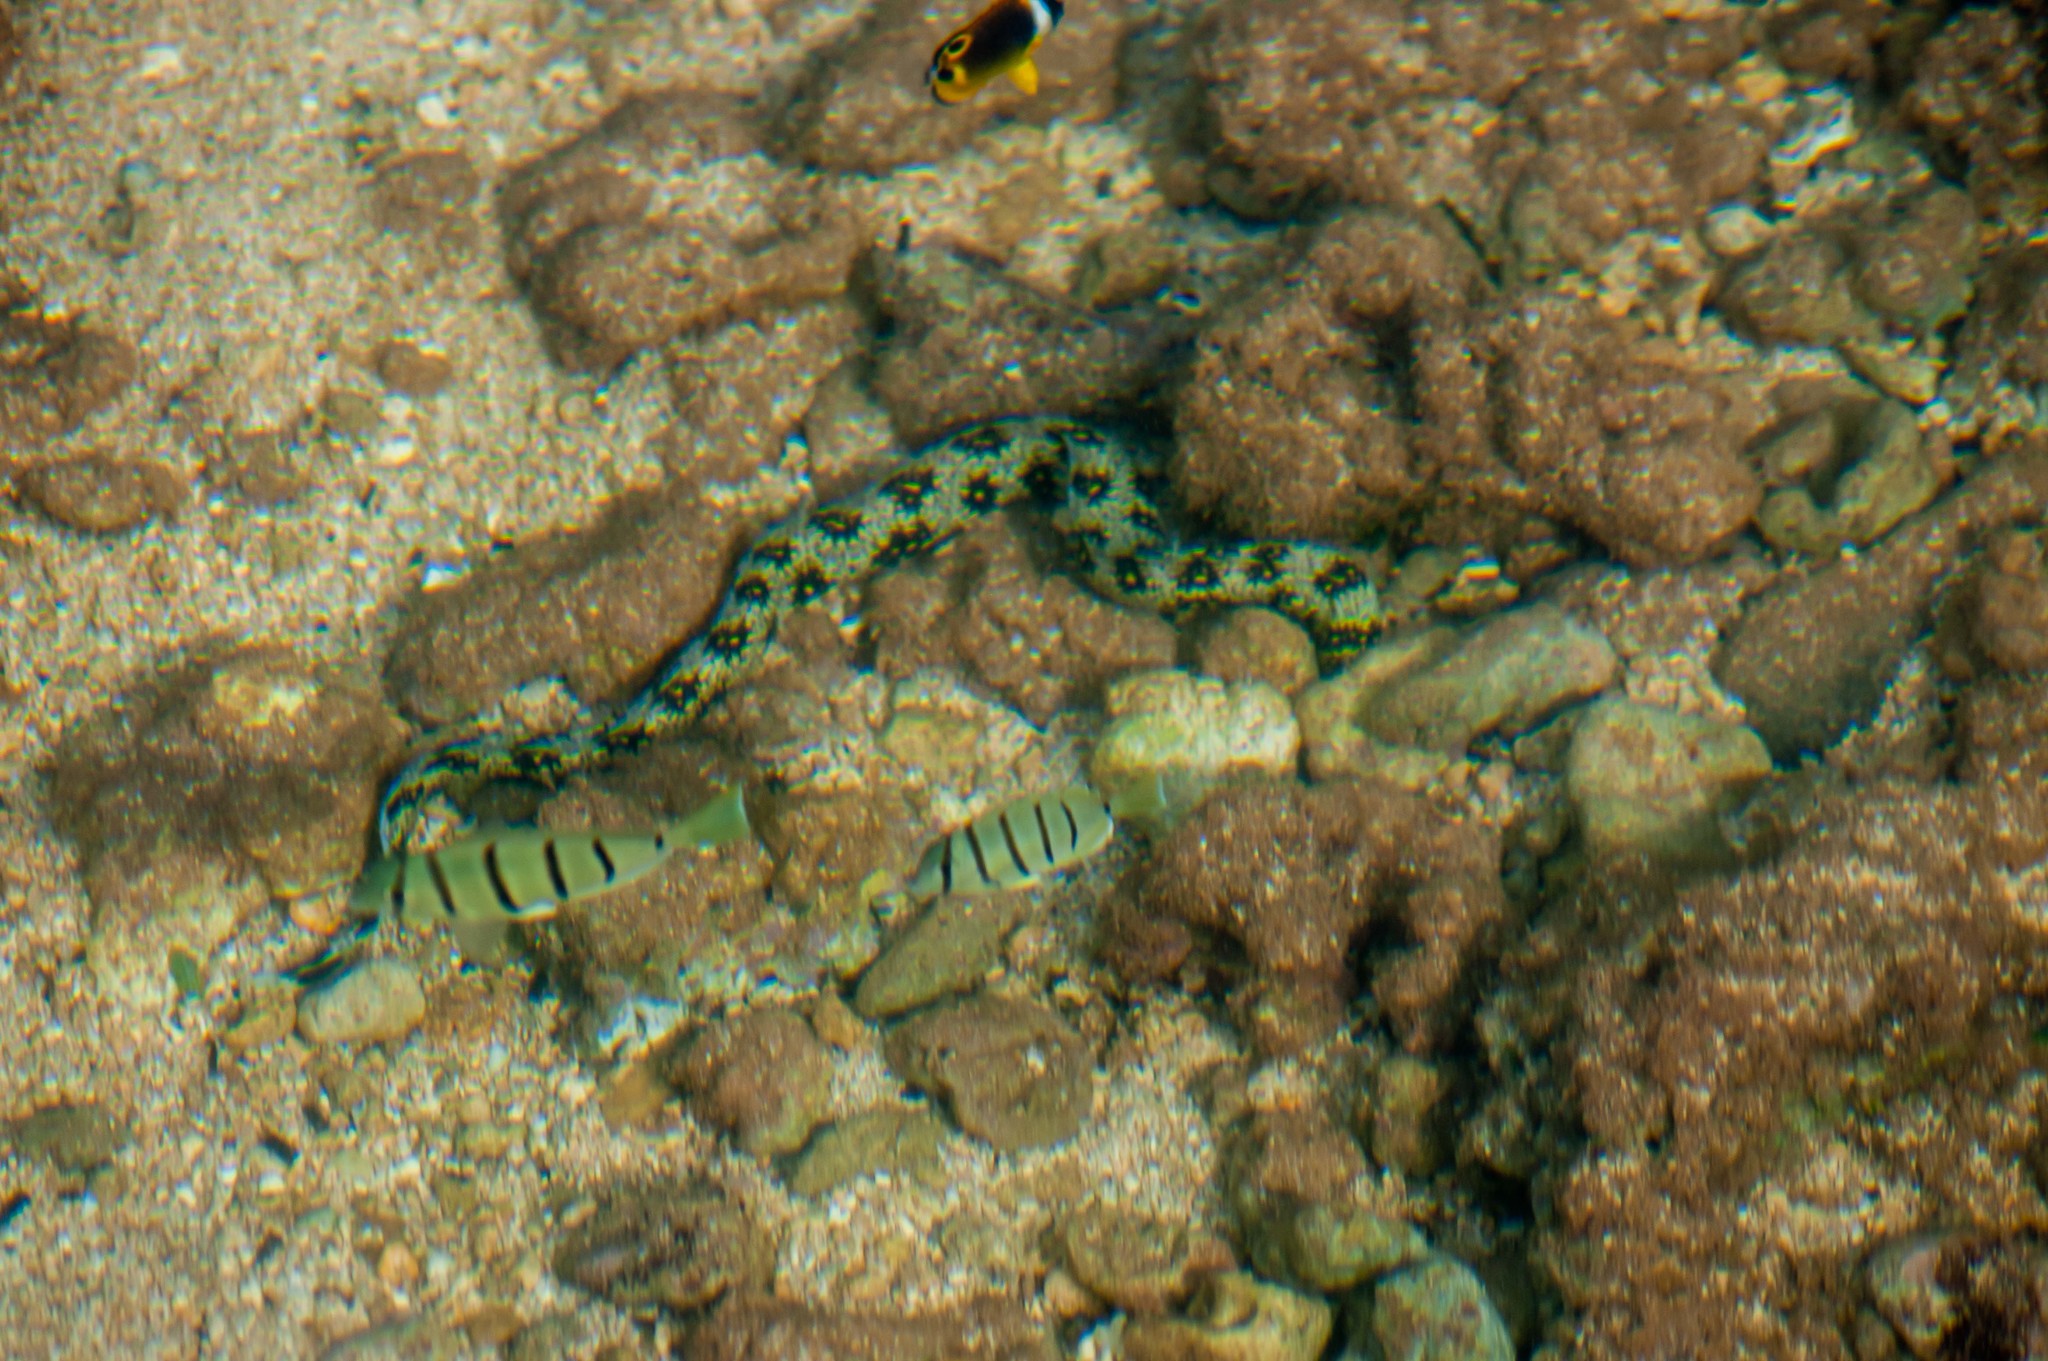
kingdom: Animalia
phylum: Chordata
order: Anguilliformes
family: Muraenidae
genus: Echidna
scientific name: Echidna nebulosa
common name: Snowflake moray
